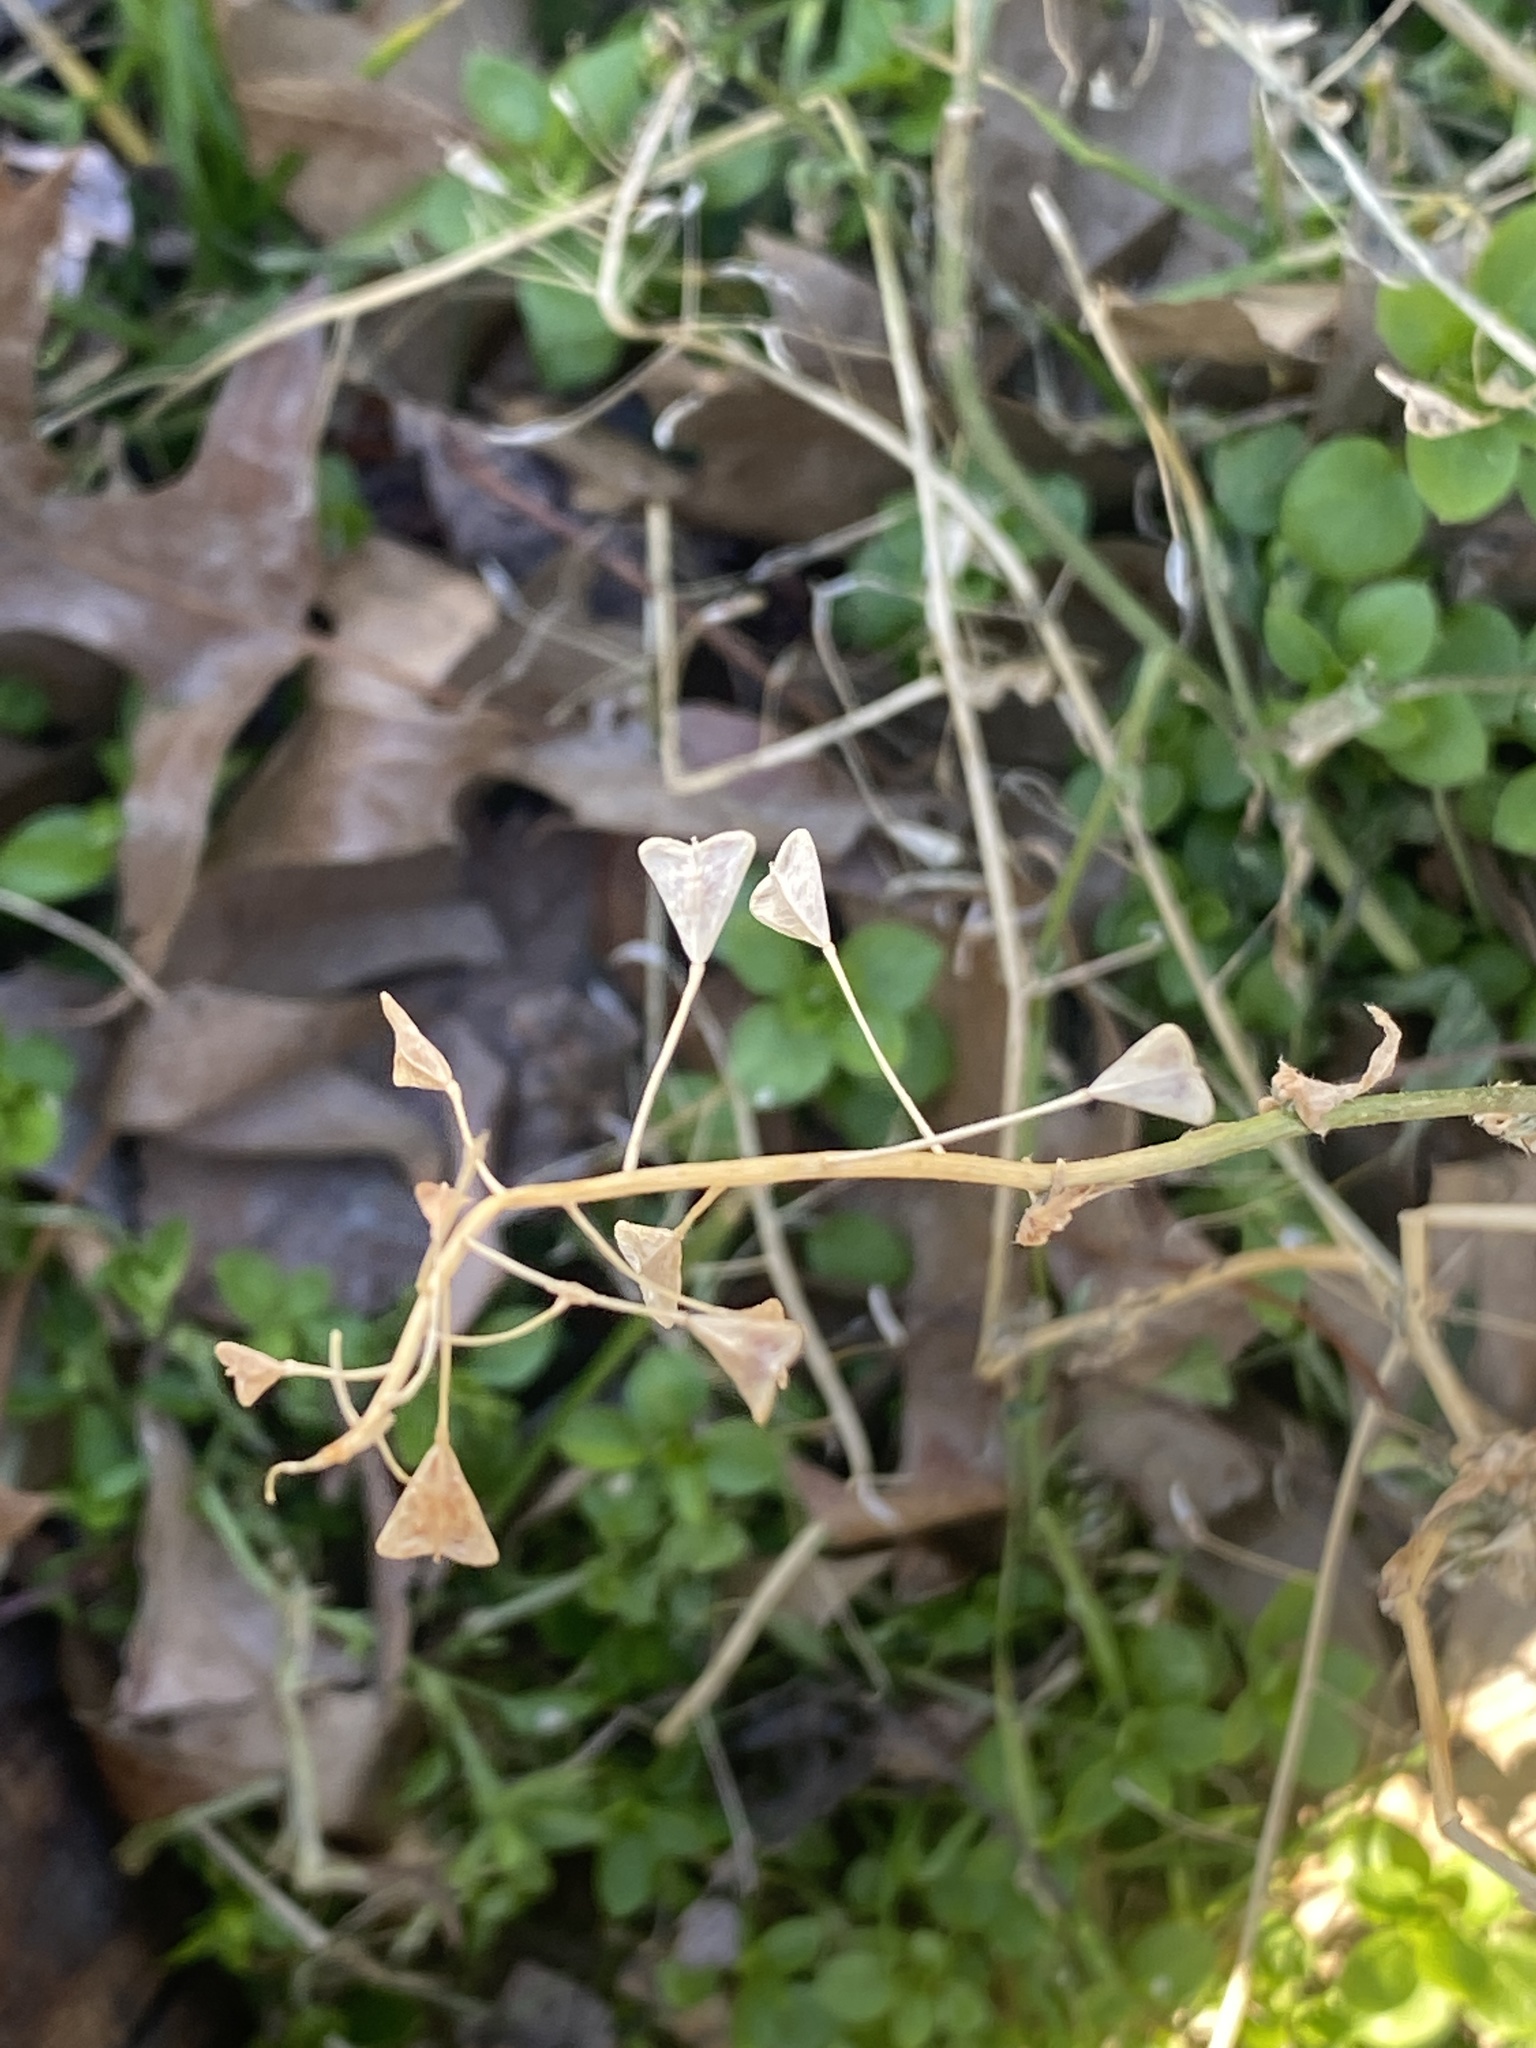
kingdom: Plantae
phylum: Tracheophyta
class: Magnoliopsida
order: Brassicales
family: Brassicaceae
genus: Capsella
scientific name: Capsella bursa-pastoris
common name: Shepherd's purse
